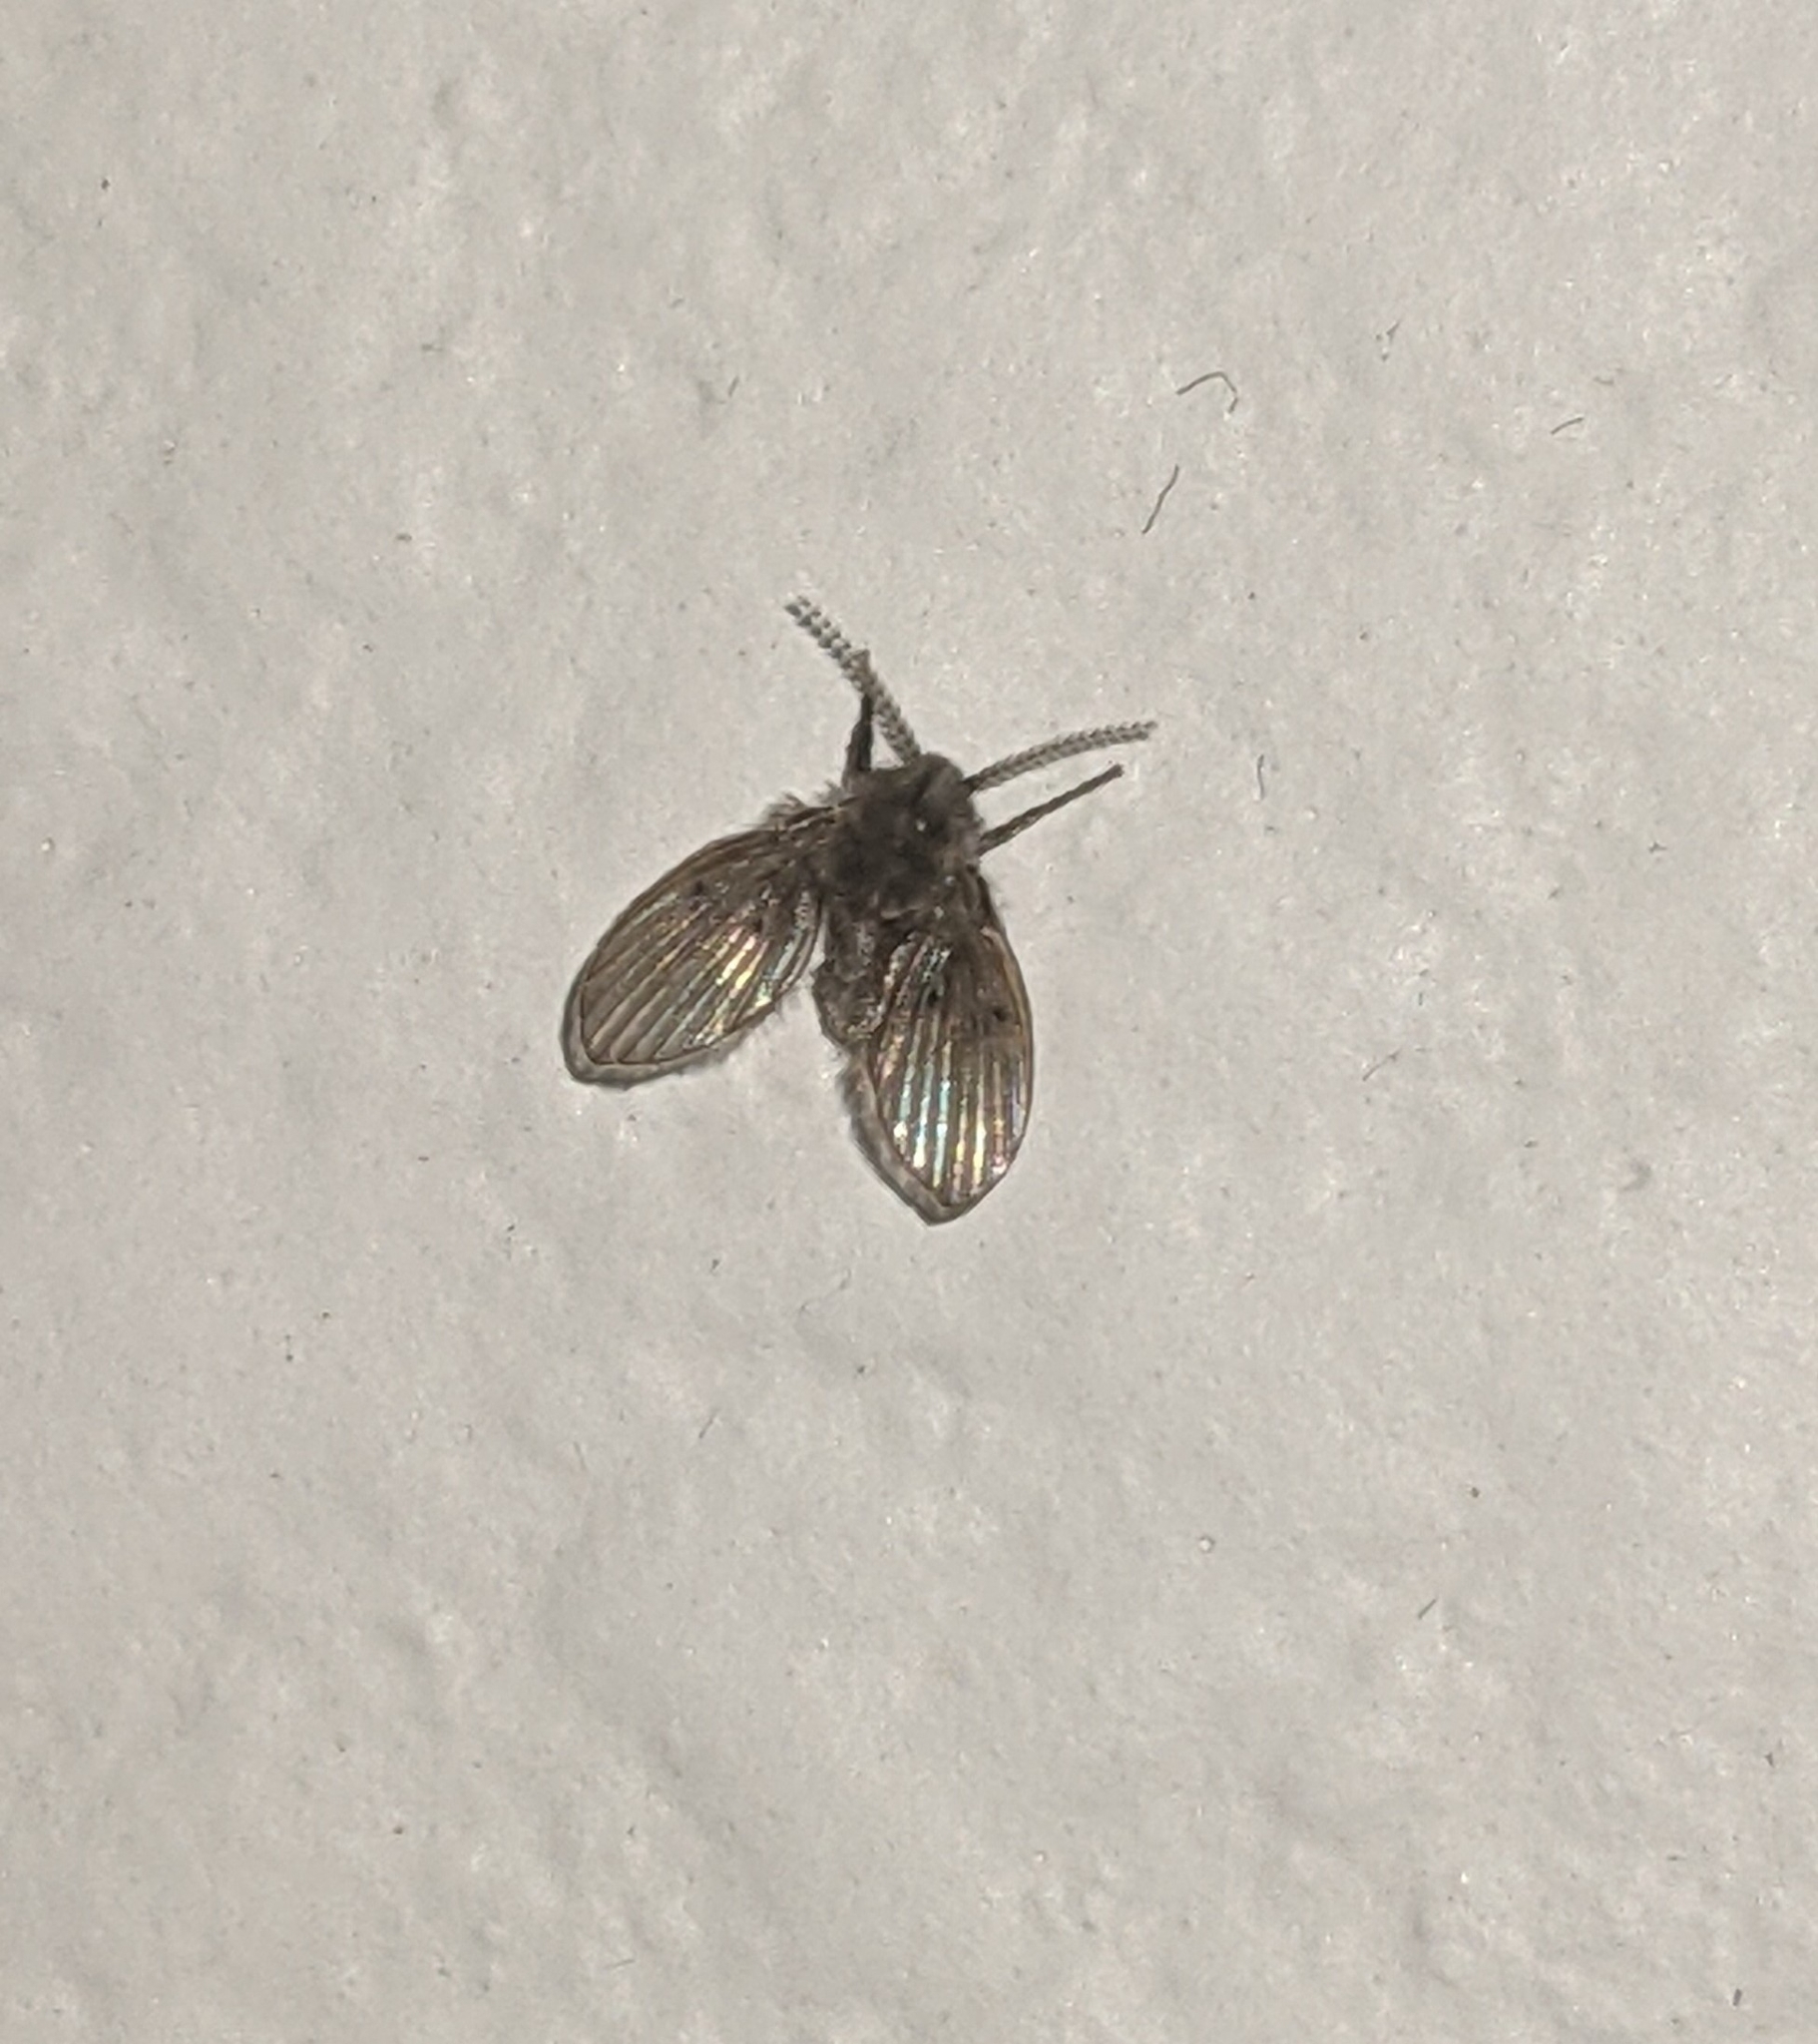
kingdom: Animalia
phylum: Arthropoda
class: Insecta
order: Diptera
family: Psychodidae
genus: Clogmia
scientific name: Clogmia albipunctatus
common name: White-spotted moth fly
